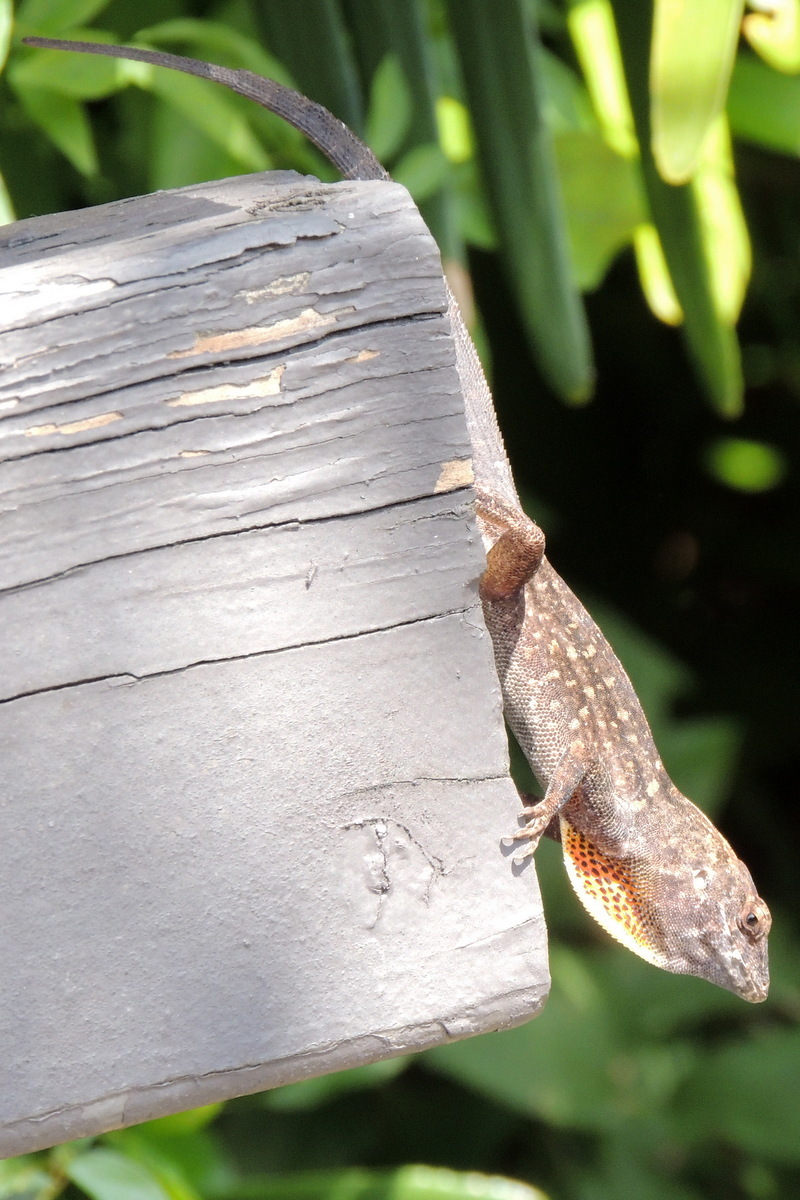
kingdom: Animalia
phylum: Chordata
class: Squamata
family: Dactyloidae
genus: Anolis
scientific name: Anolis sagrei
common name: Brown anole
